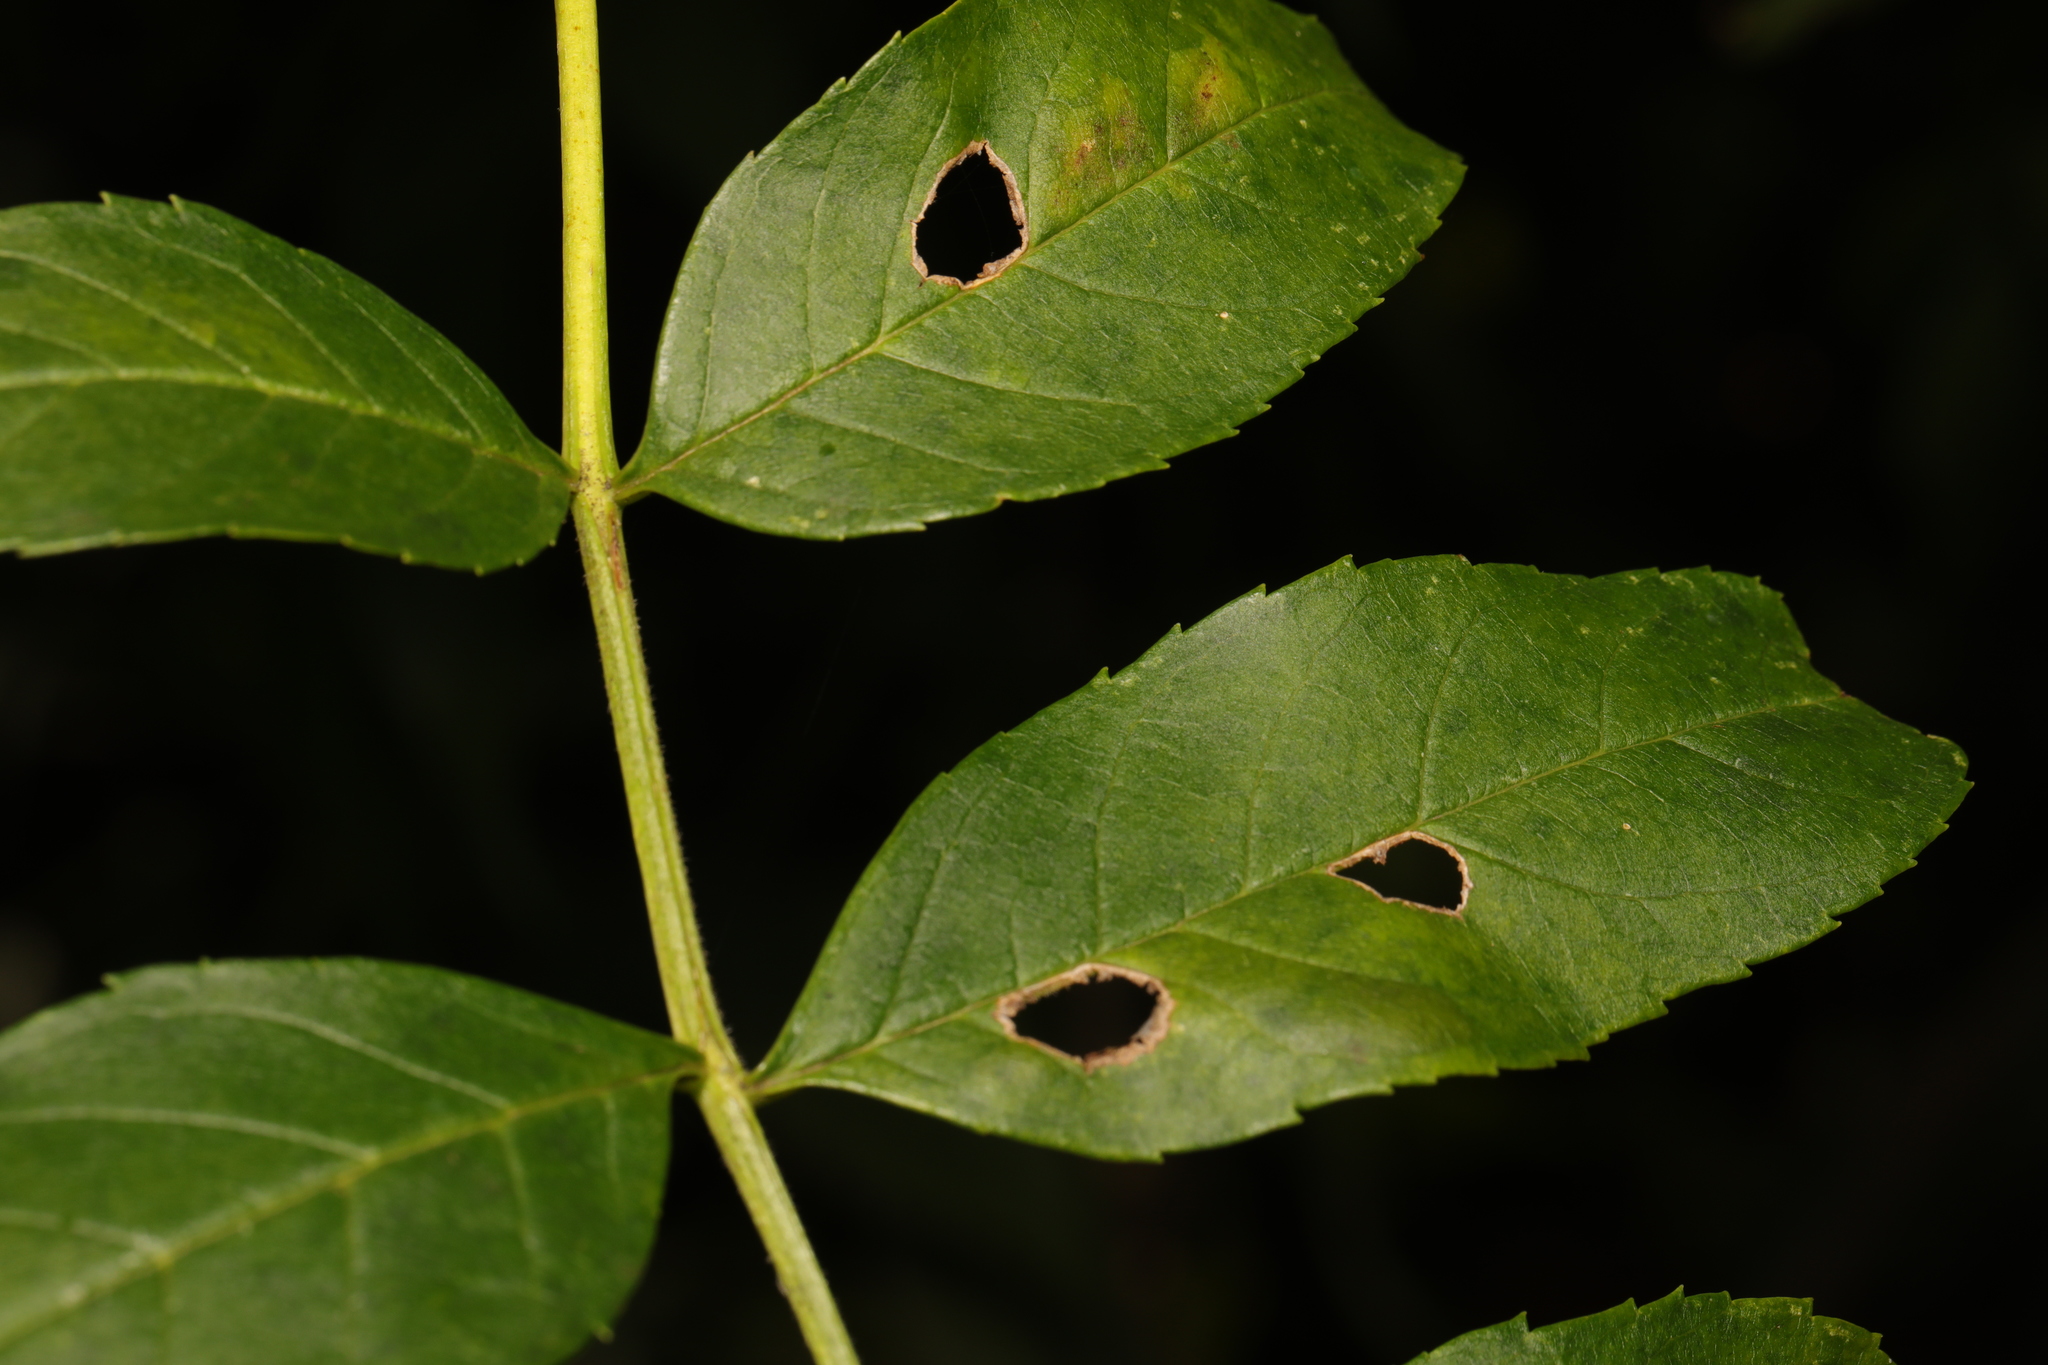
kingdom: Animalia
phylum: Arthropoda
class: Insecta
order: Diptera
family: Cecidomyiidae
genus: Dasineura
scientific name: Dasineura fraxinea
